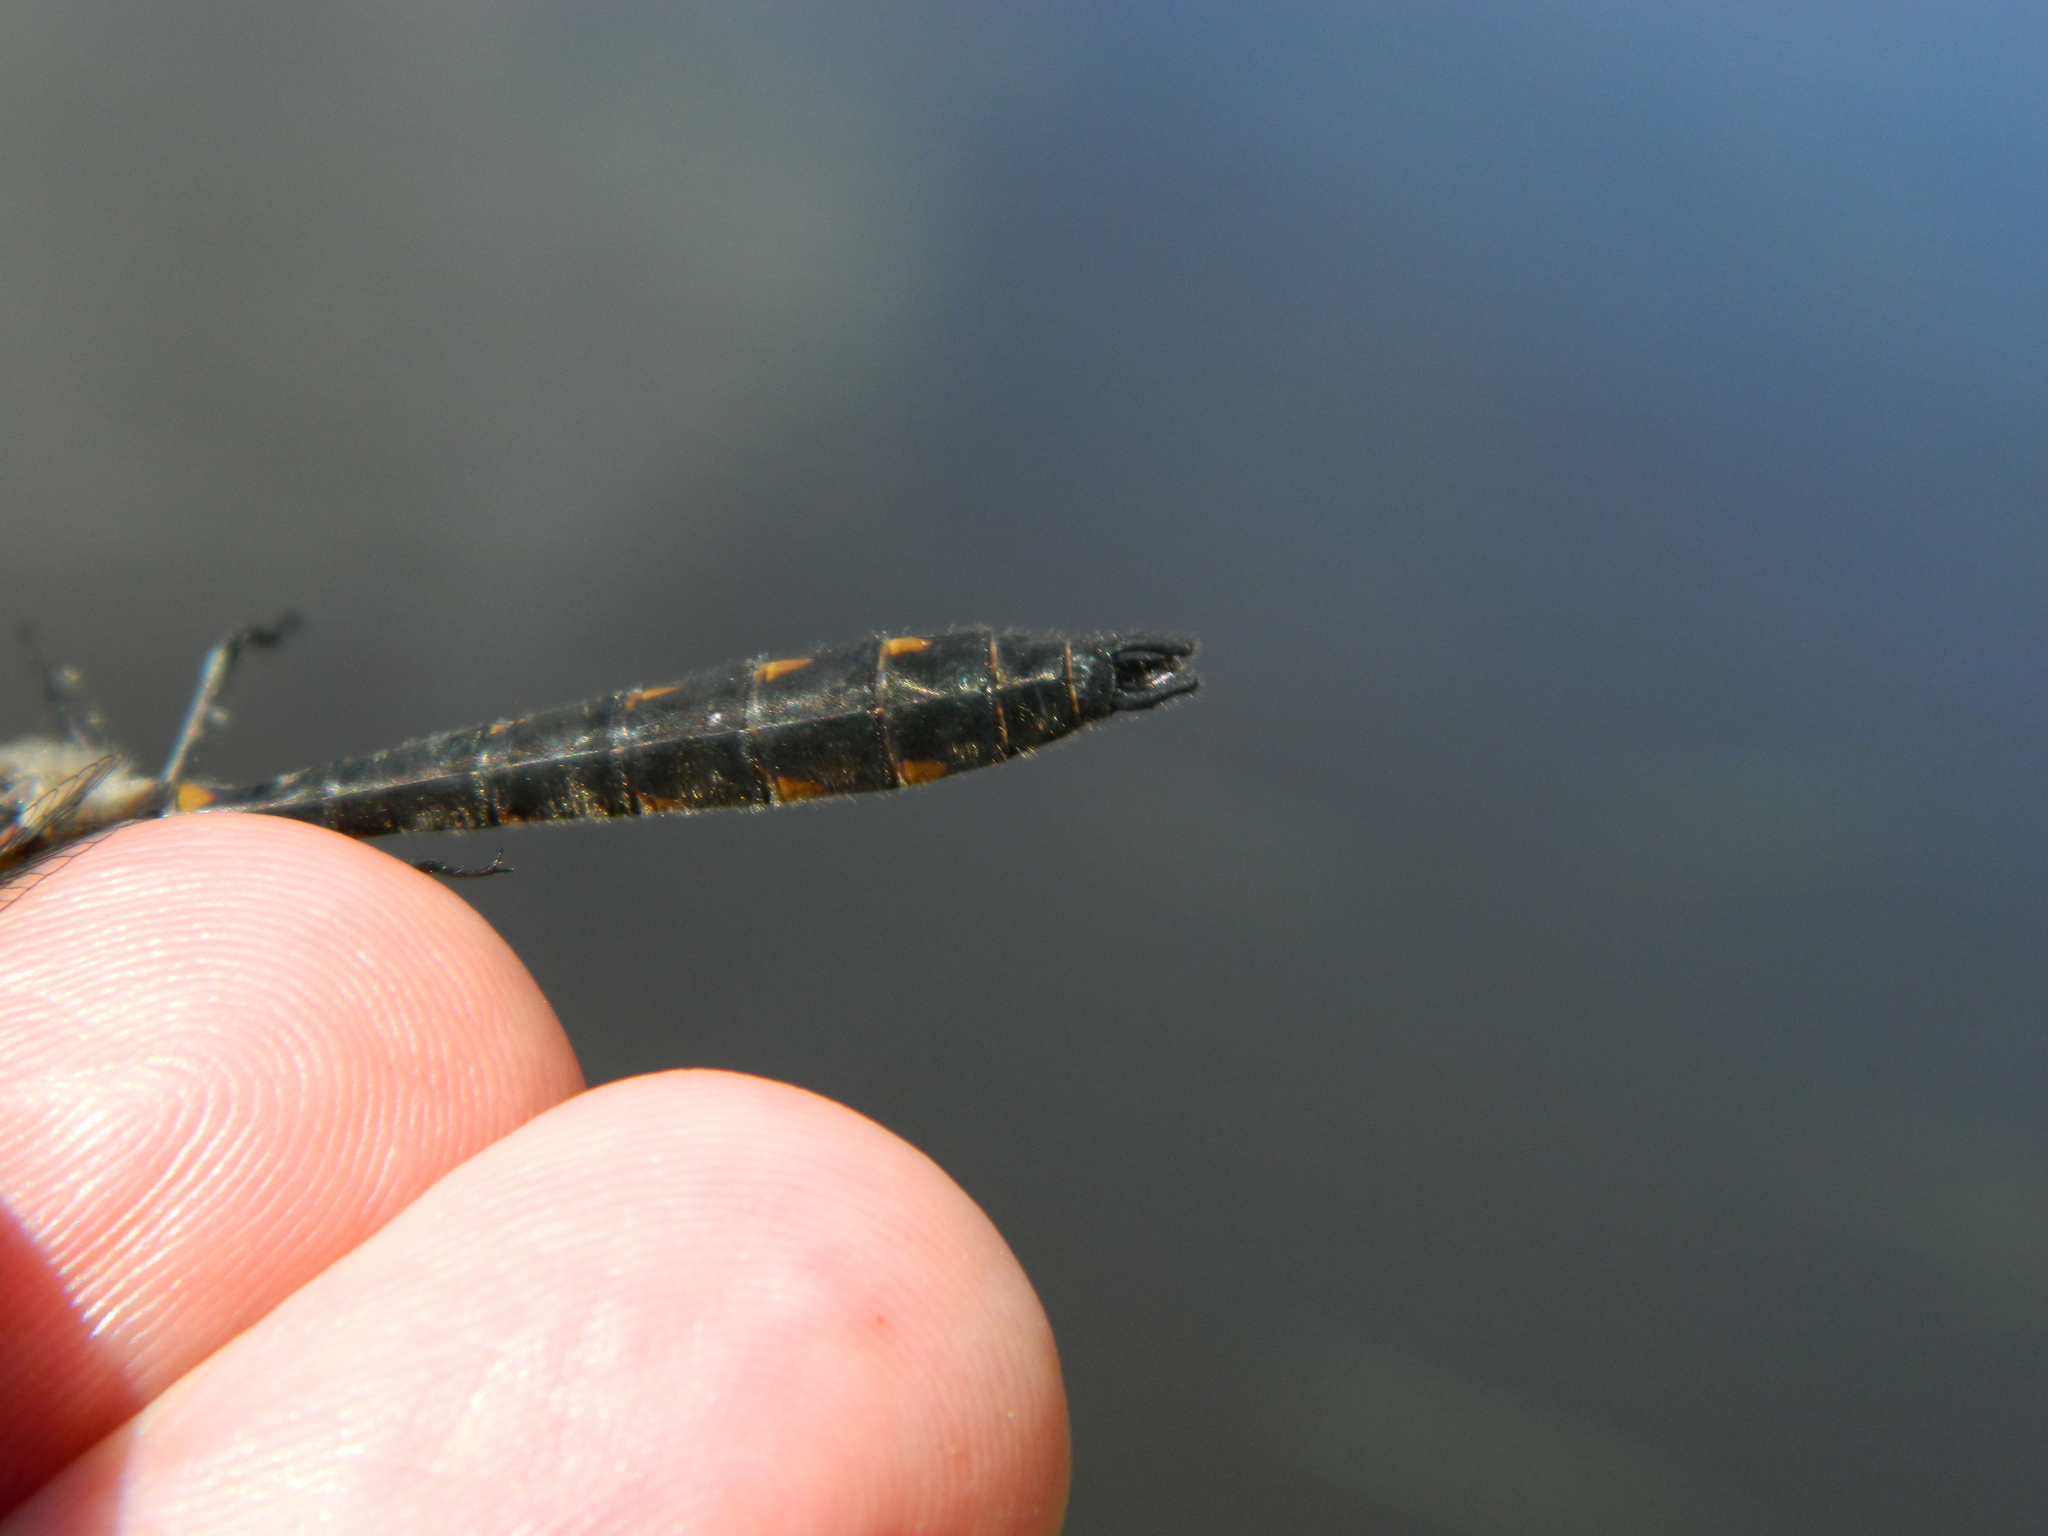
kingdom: Animalia
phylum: Arthropoda
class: Insecta
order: Odonata
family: Corduliidae
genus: Helocordulia
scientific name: Helocordulia uhleri
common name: Uhler's sundragon
